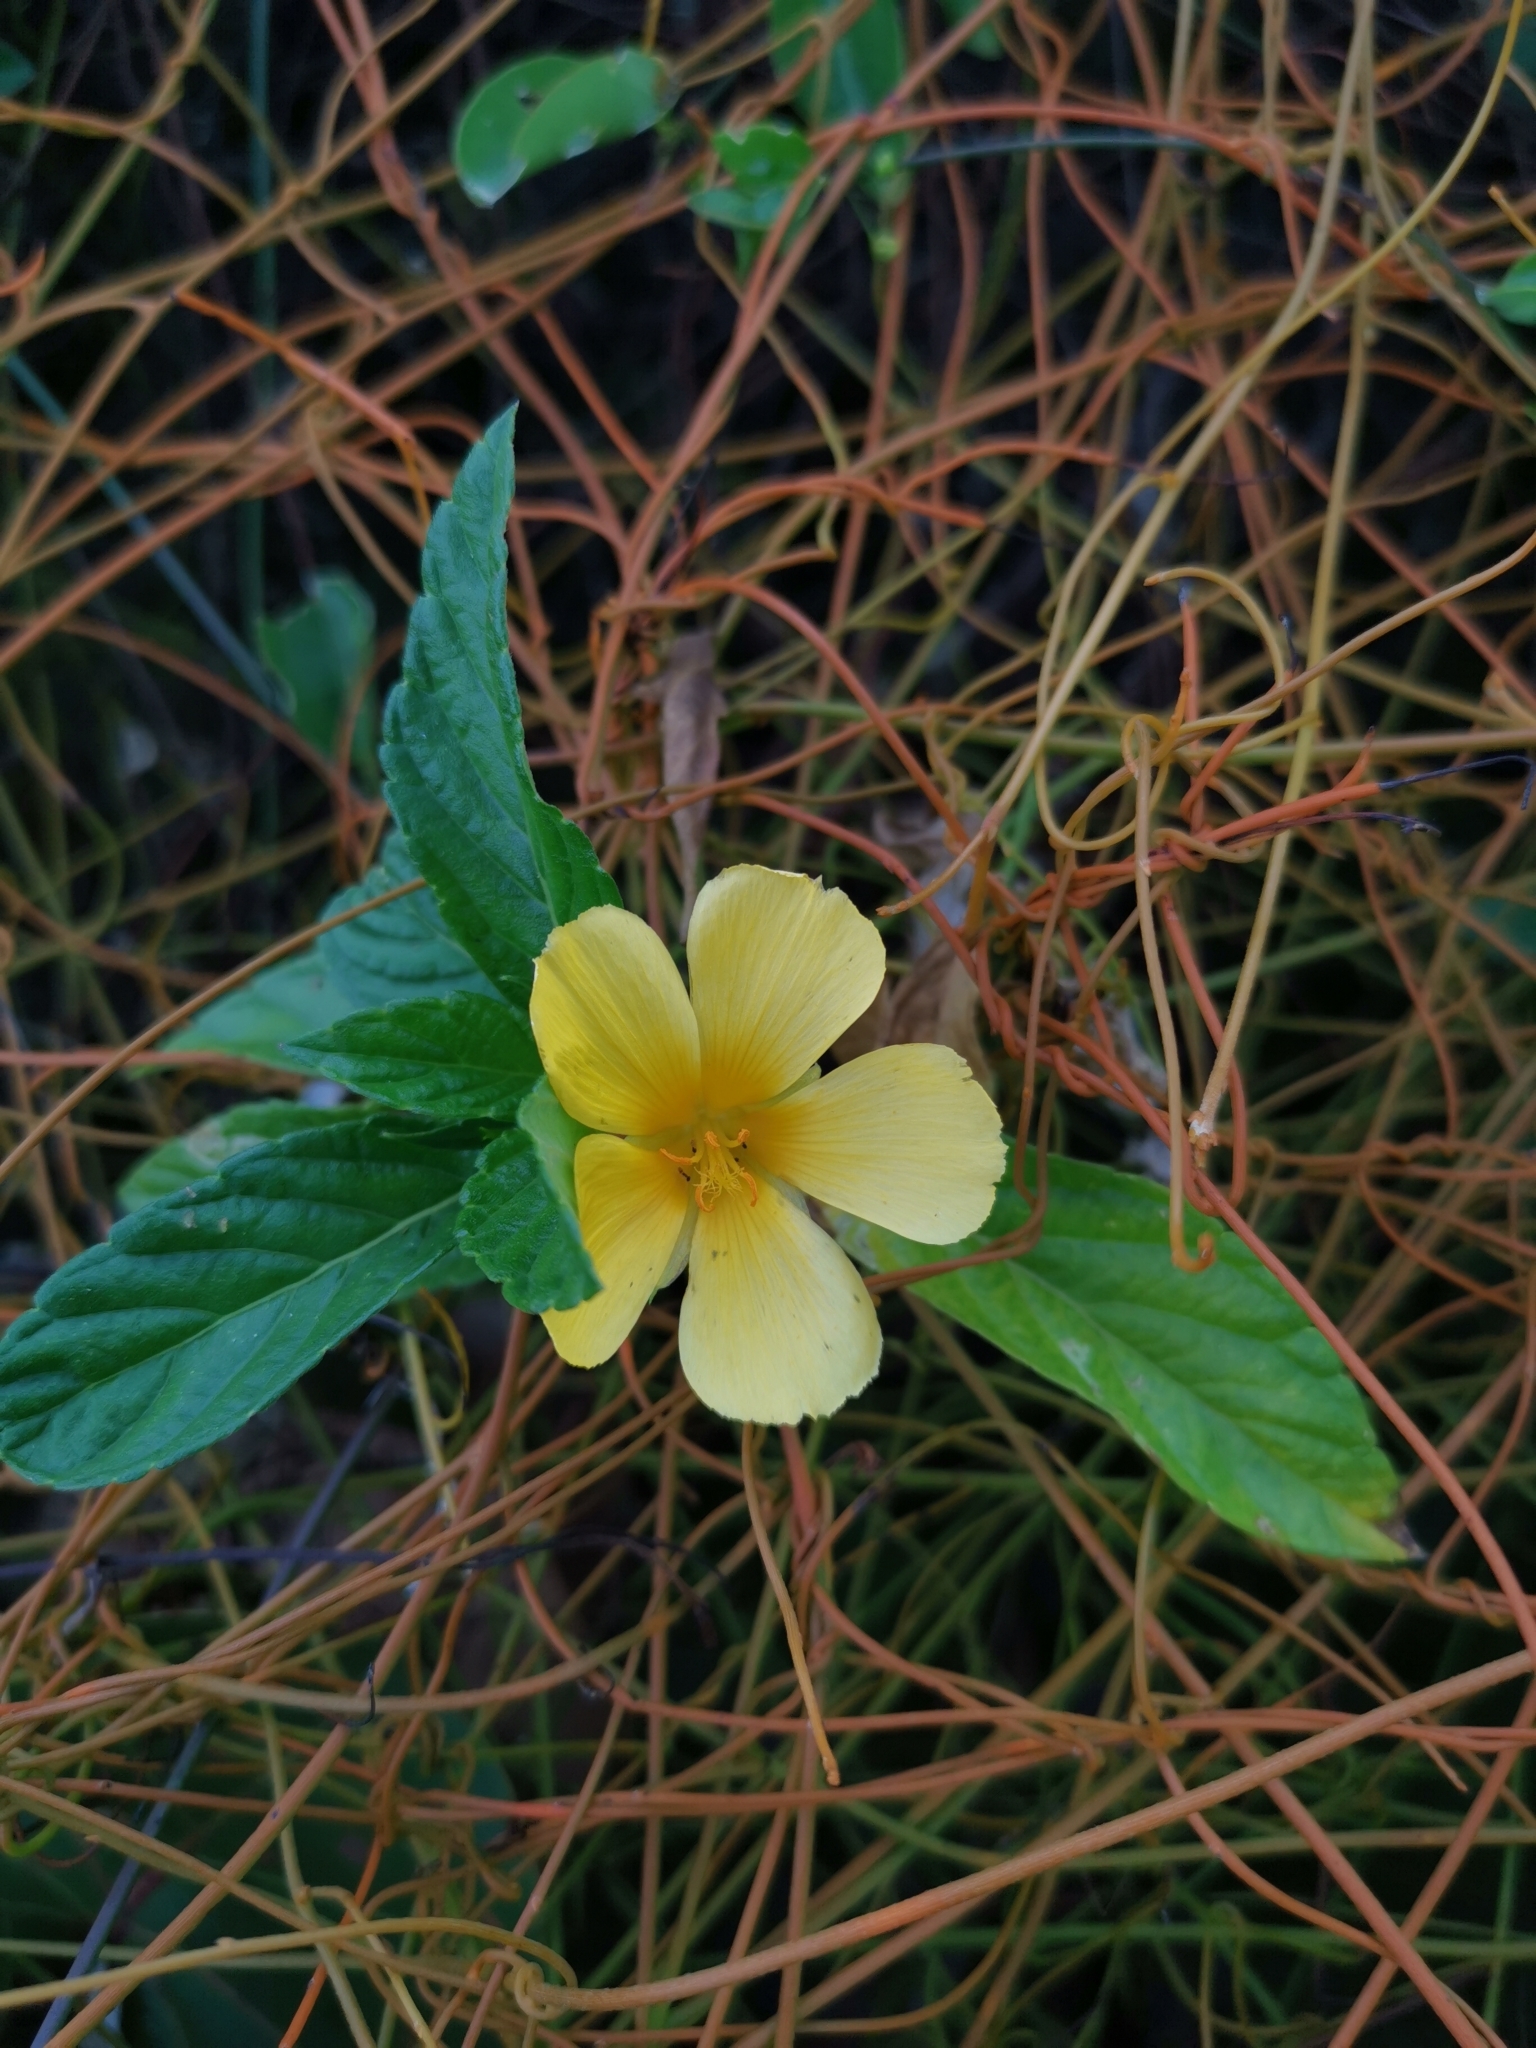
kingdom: Plantae
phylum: Tracheophyta
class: Magnoliopsida
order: Malpighiales
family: Turneraceae
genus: Turnera
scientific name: Turnera ulmifolia
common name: Ramgoat dashalong
